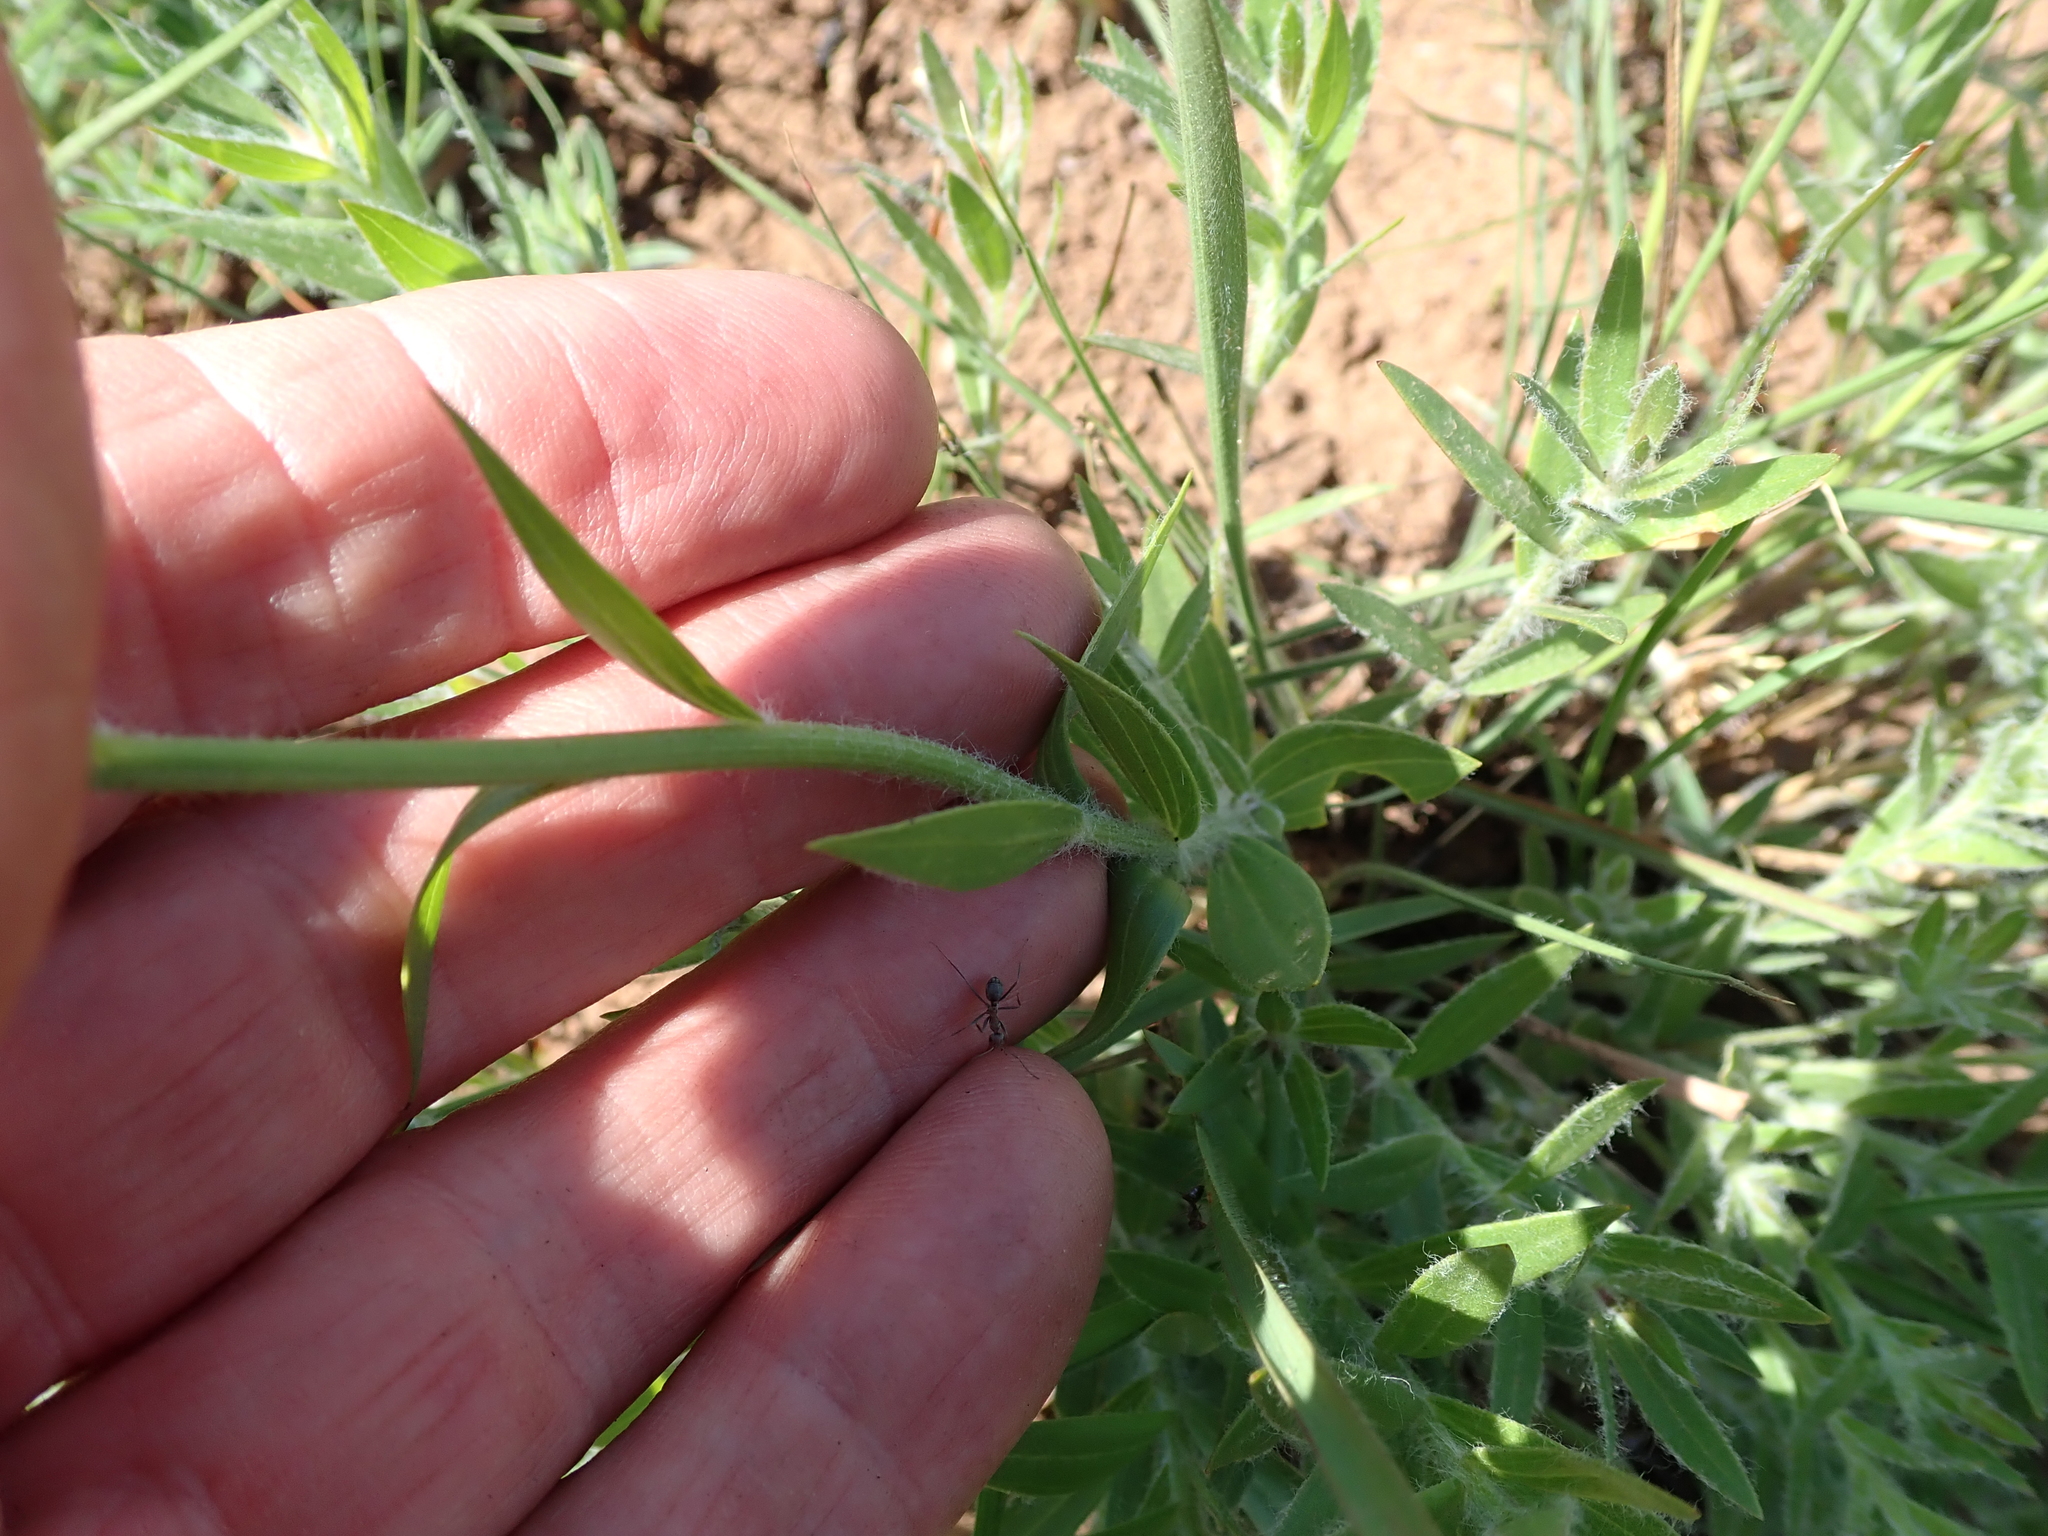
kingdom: Plantae
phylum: Tracheophyta
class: Magnoliopsida
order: Asterales
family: Asteraceae
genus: Callilepis
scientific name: Callilepis laureola
